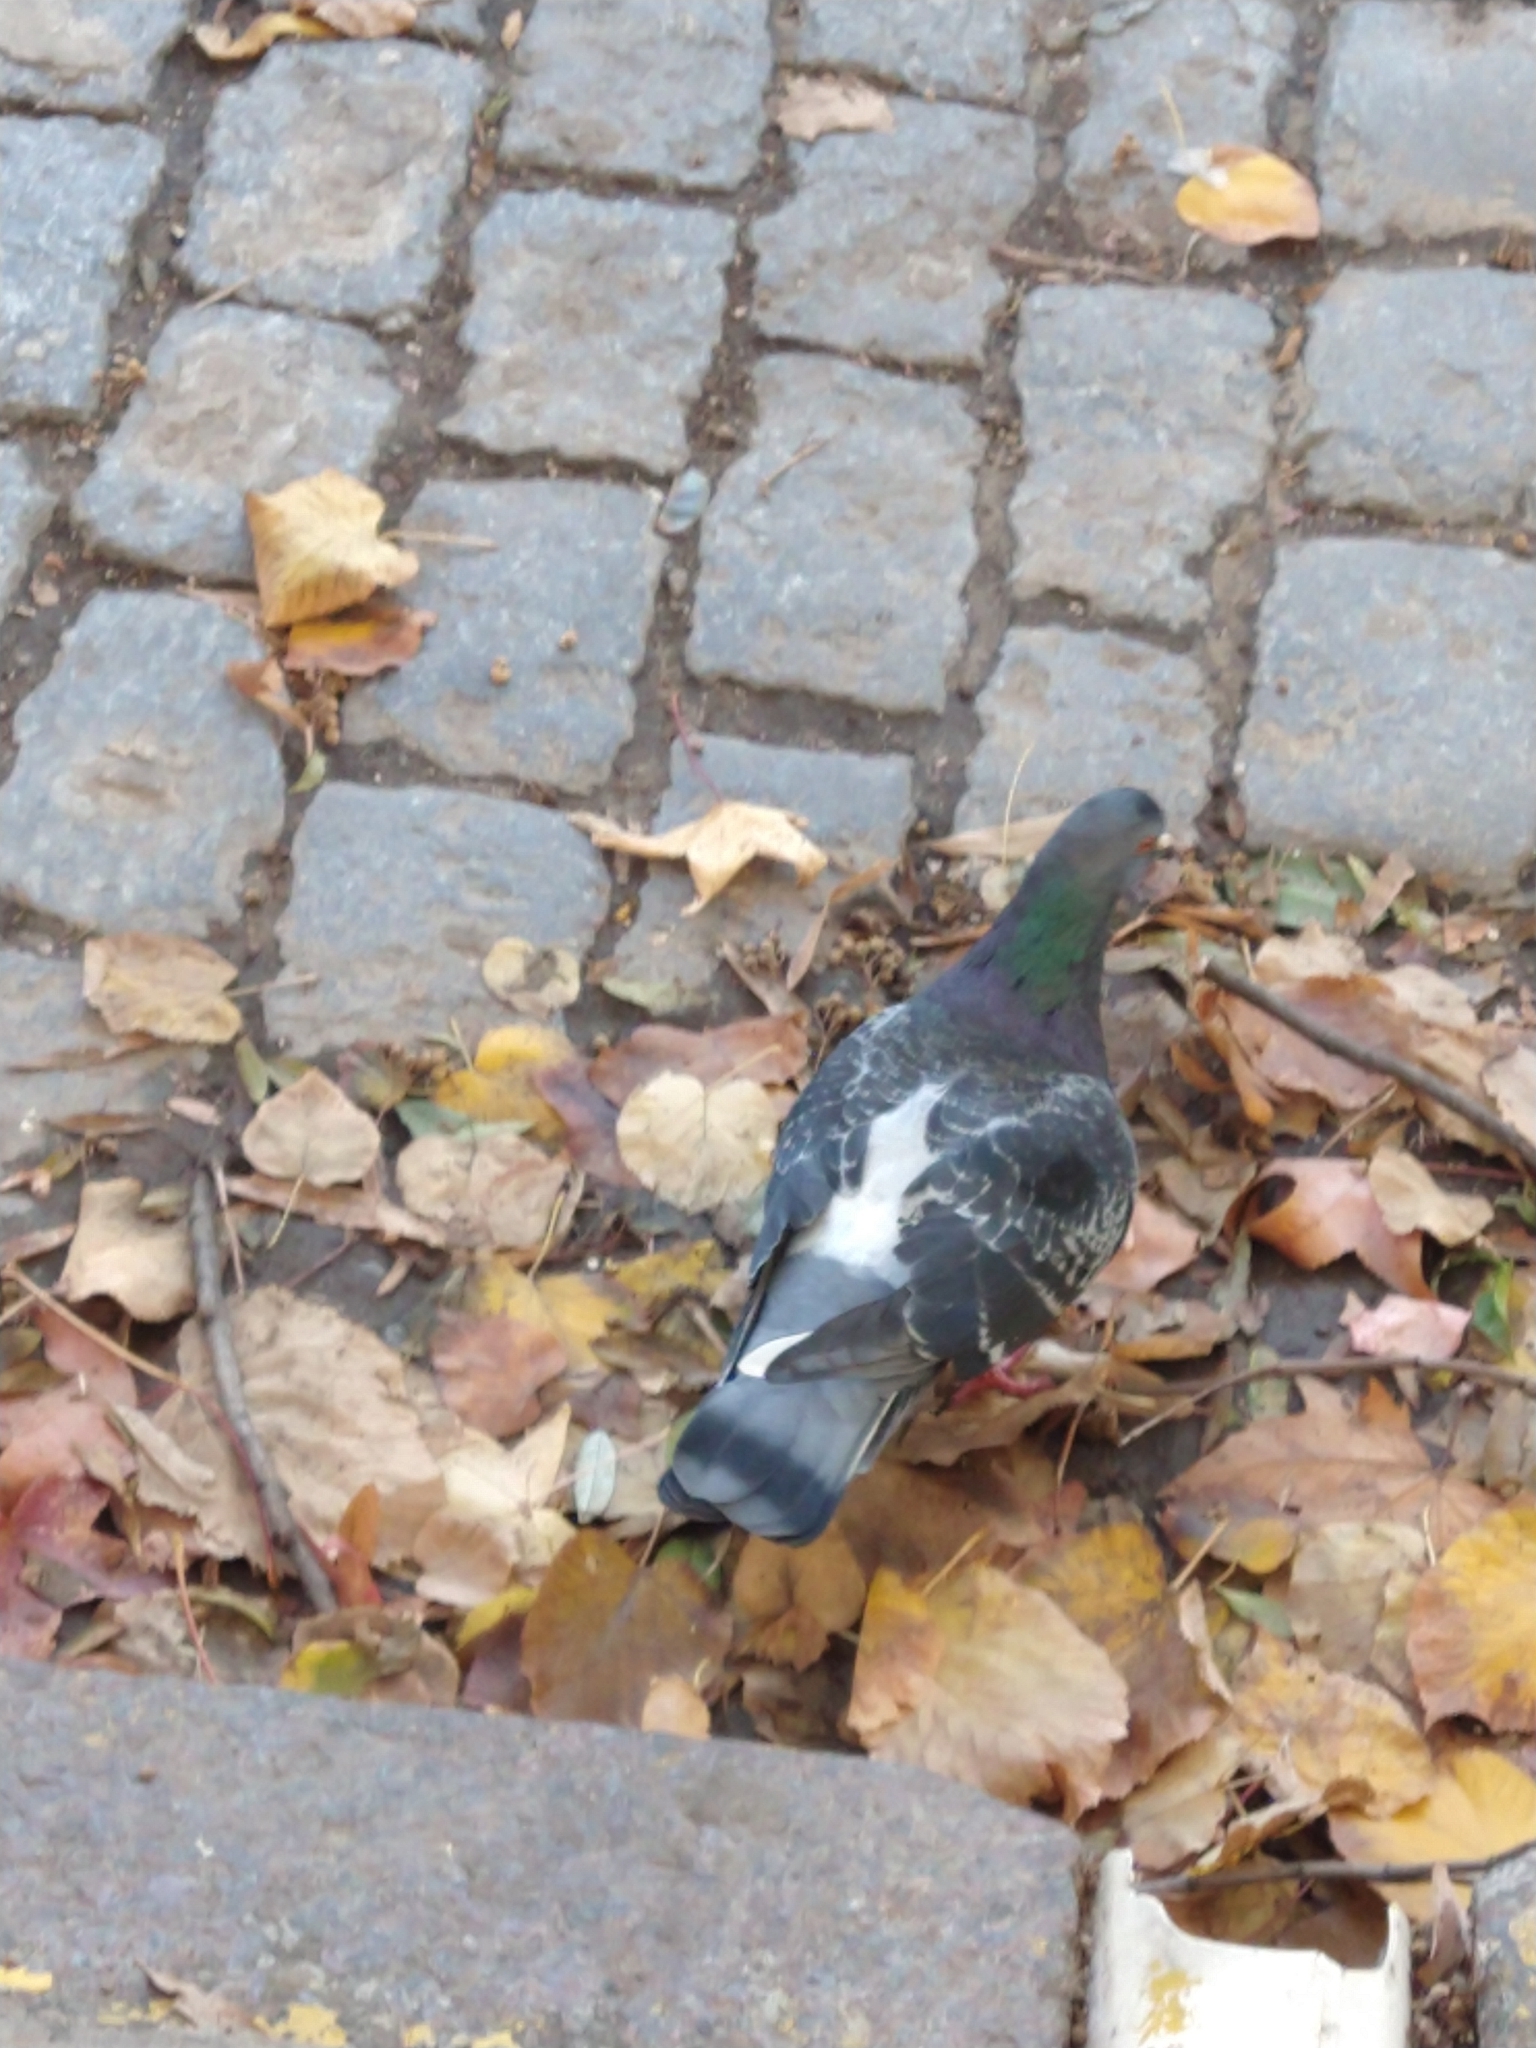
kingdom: Animalia
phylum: Chordata
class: Aves
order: Columbiformes
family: Columbidae
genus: Columba
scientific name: Columba livia
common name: Rock pigeon
